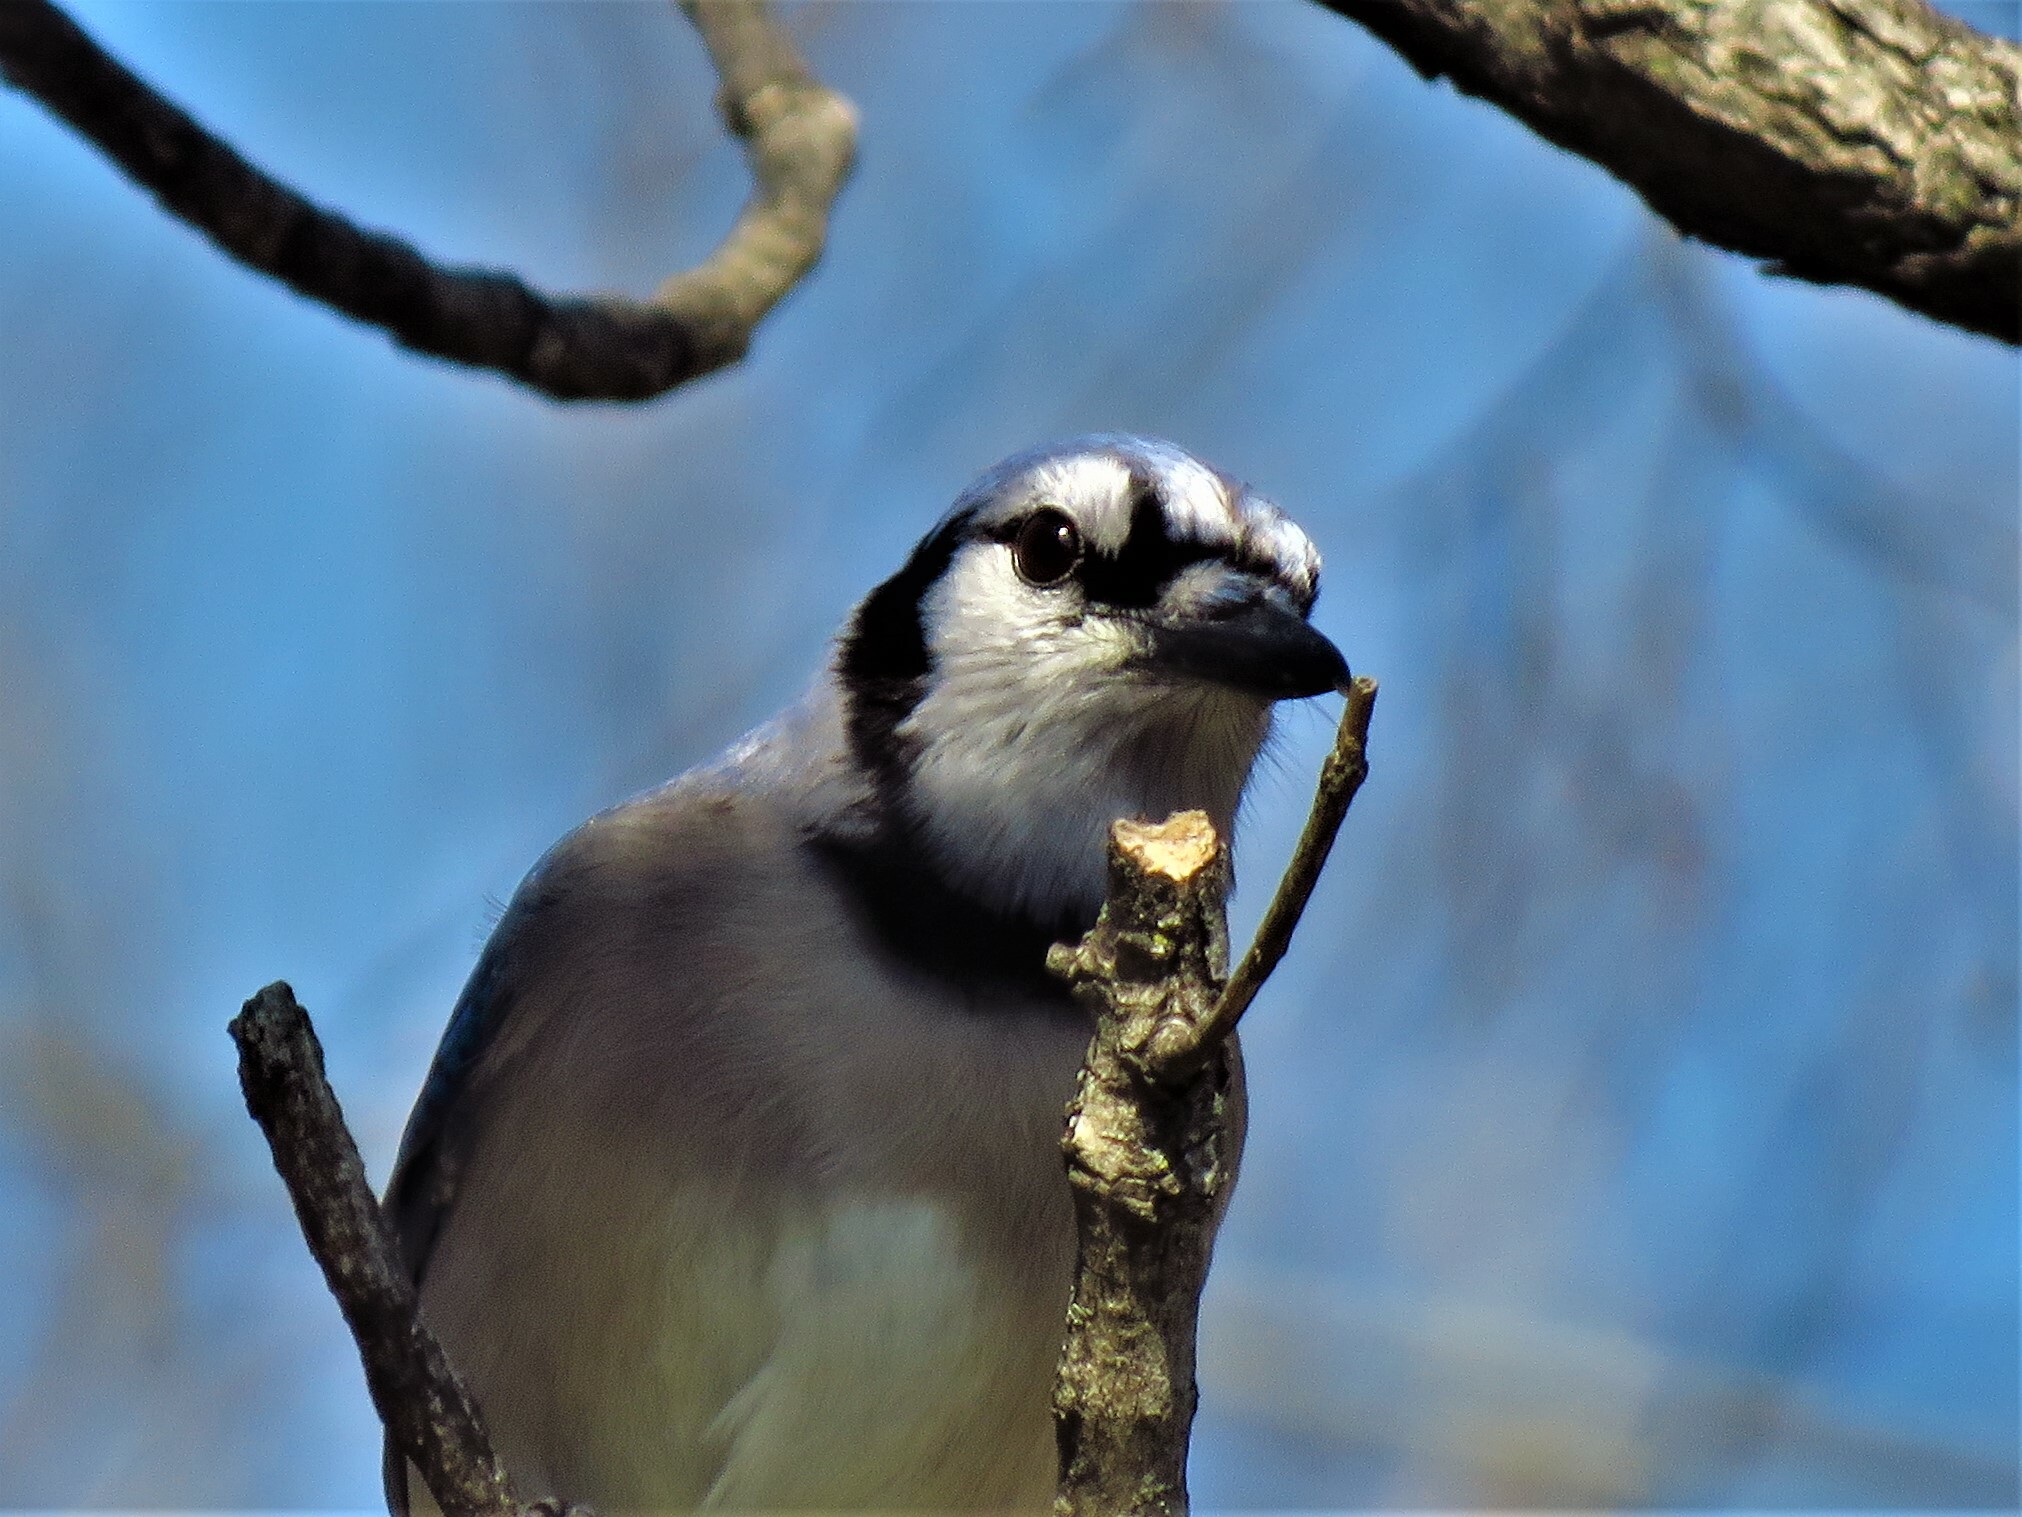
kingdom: Animalia
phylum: Chordata
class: Aves
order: Passeriformes
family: Corvidae
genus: Cyanocitta
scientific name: Cyanocitta cristata
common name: Blue jay
